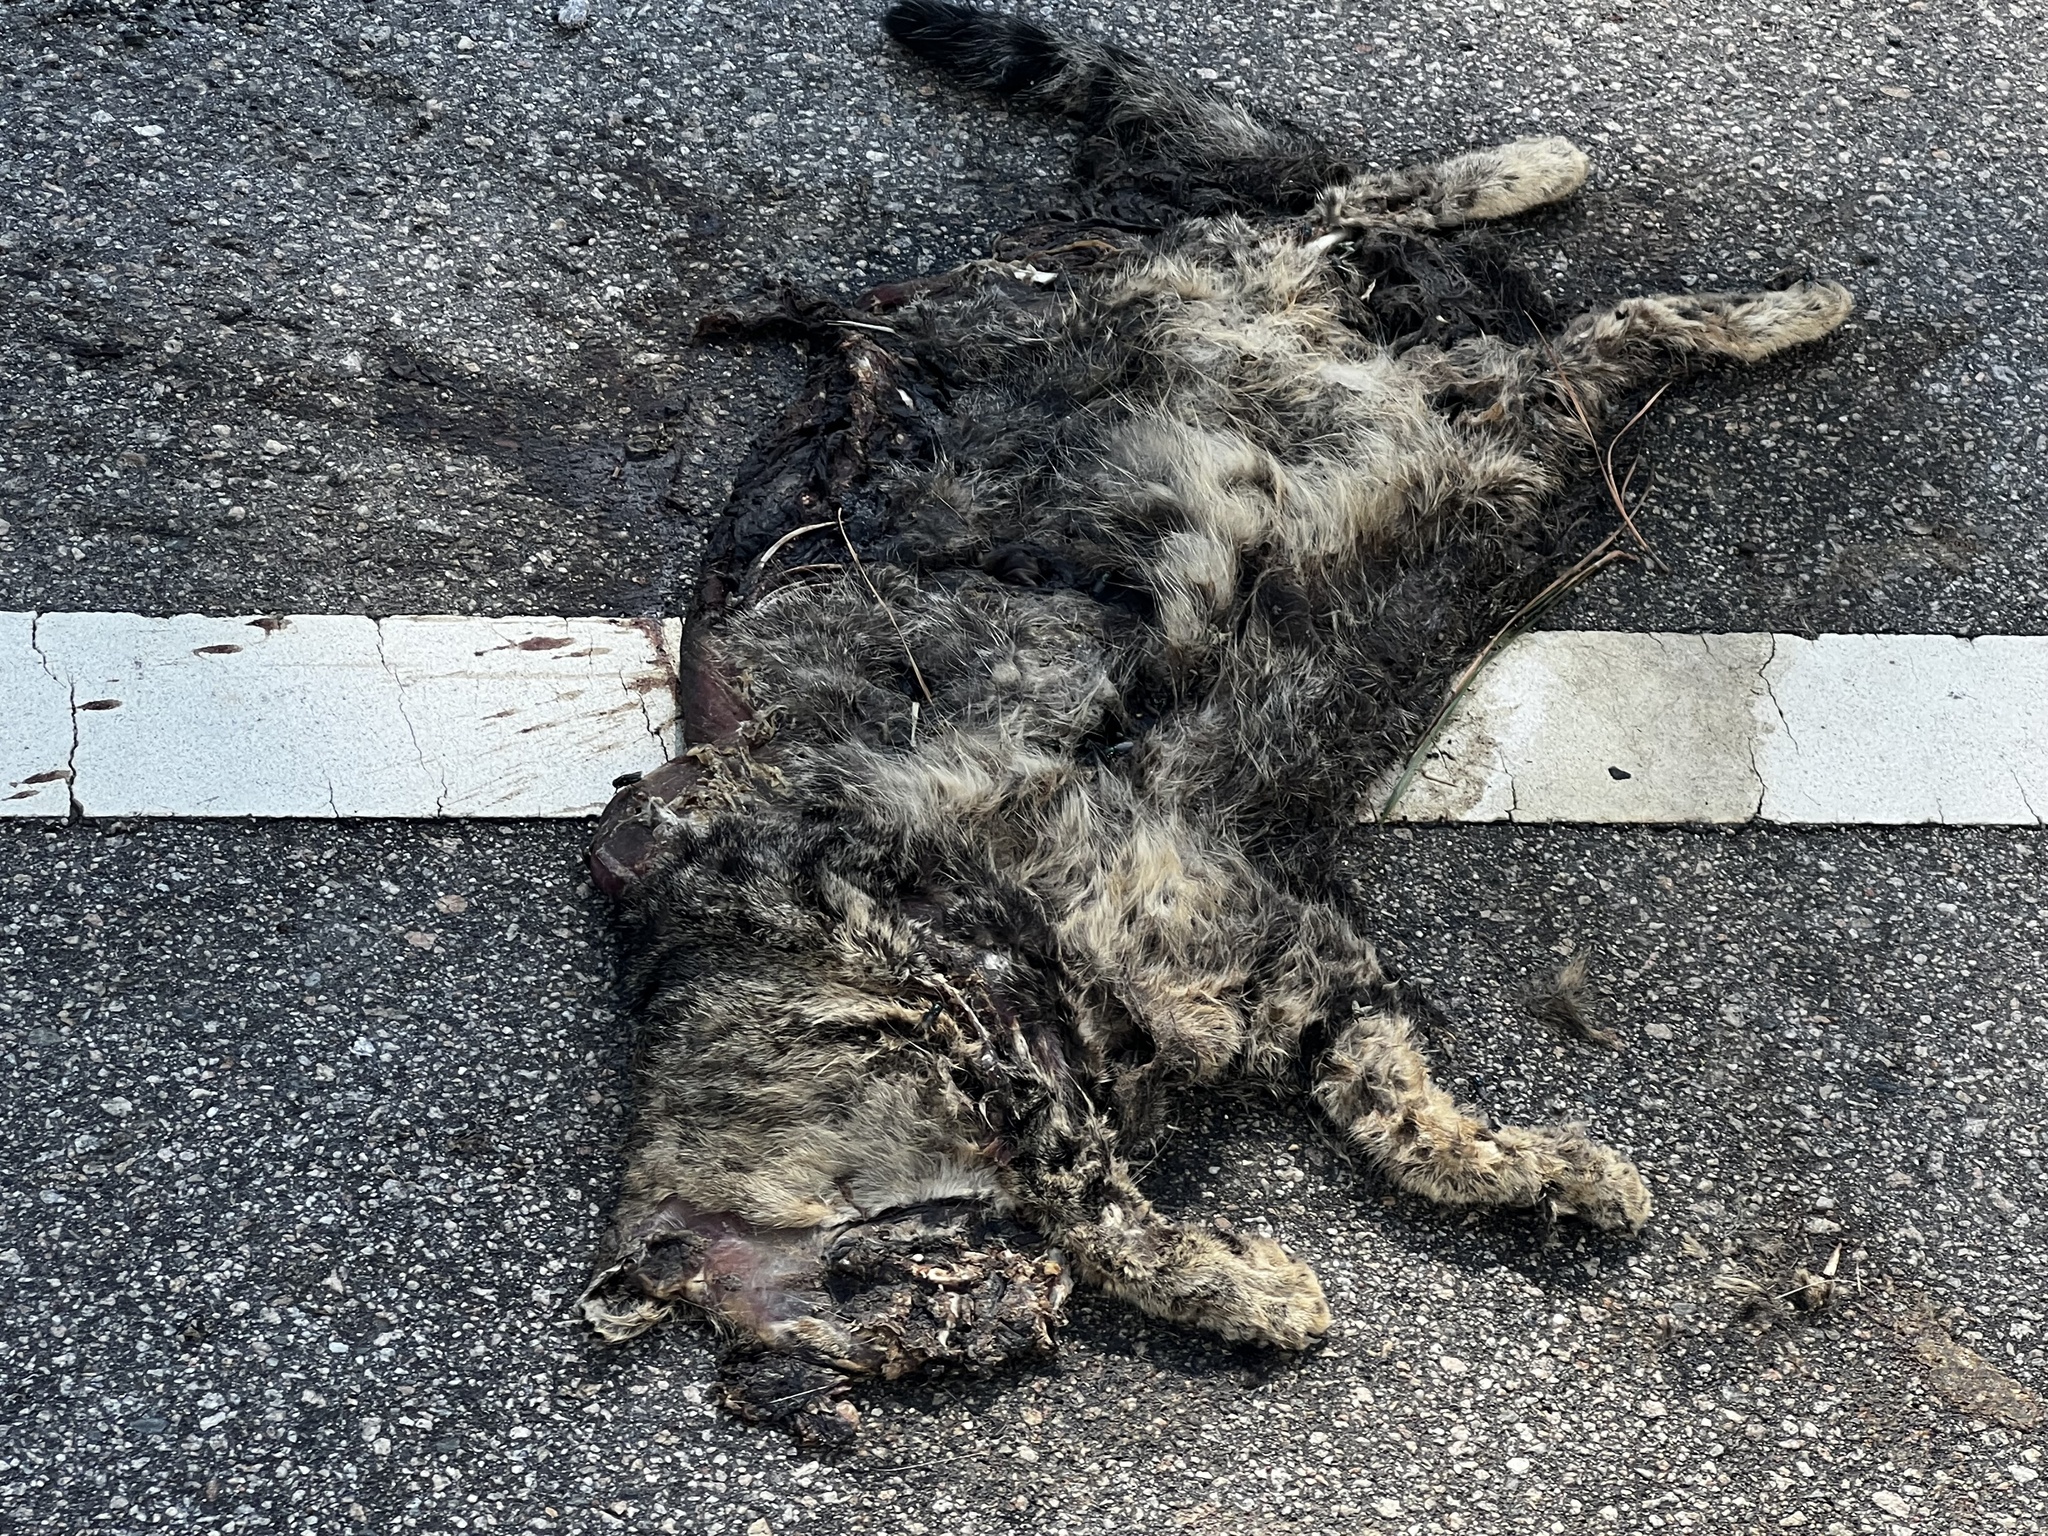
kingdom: Animalia
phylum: Chordata
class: Mammalia
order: Carnivora
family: Felidae
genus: Felis
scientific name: Felis catus
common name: Domestic cat
